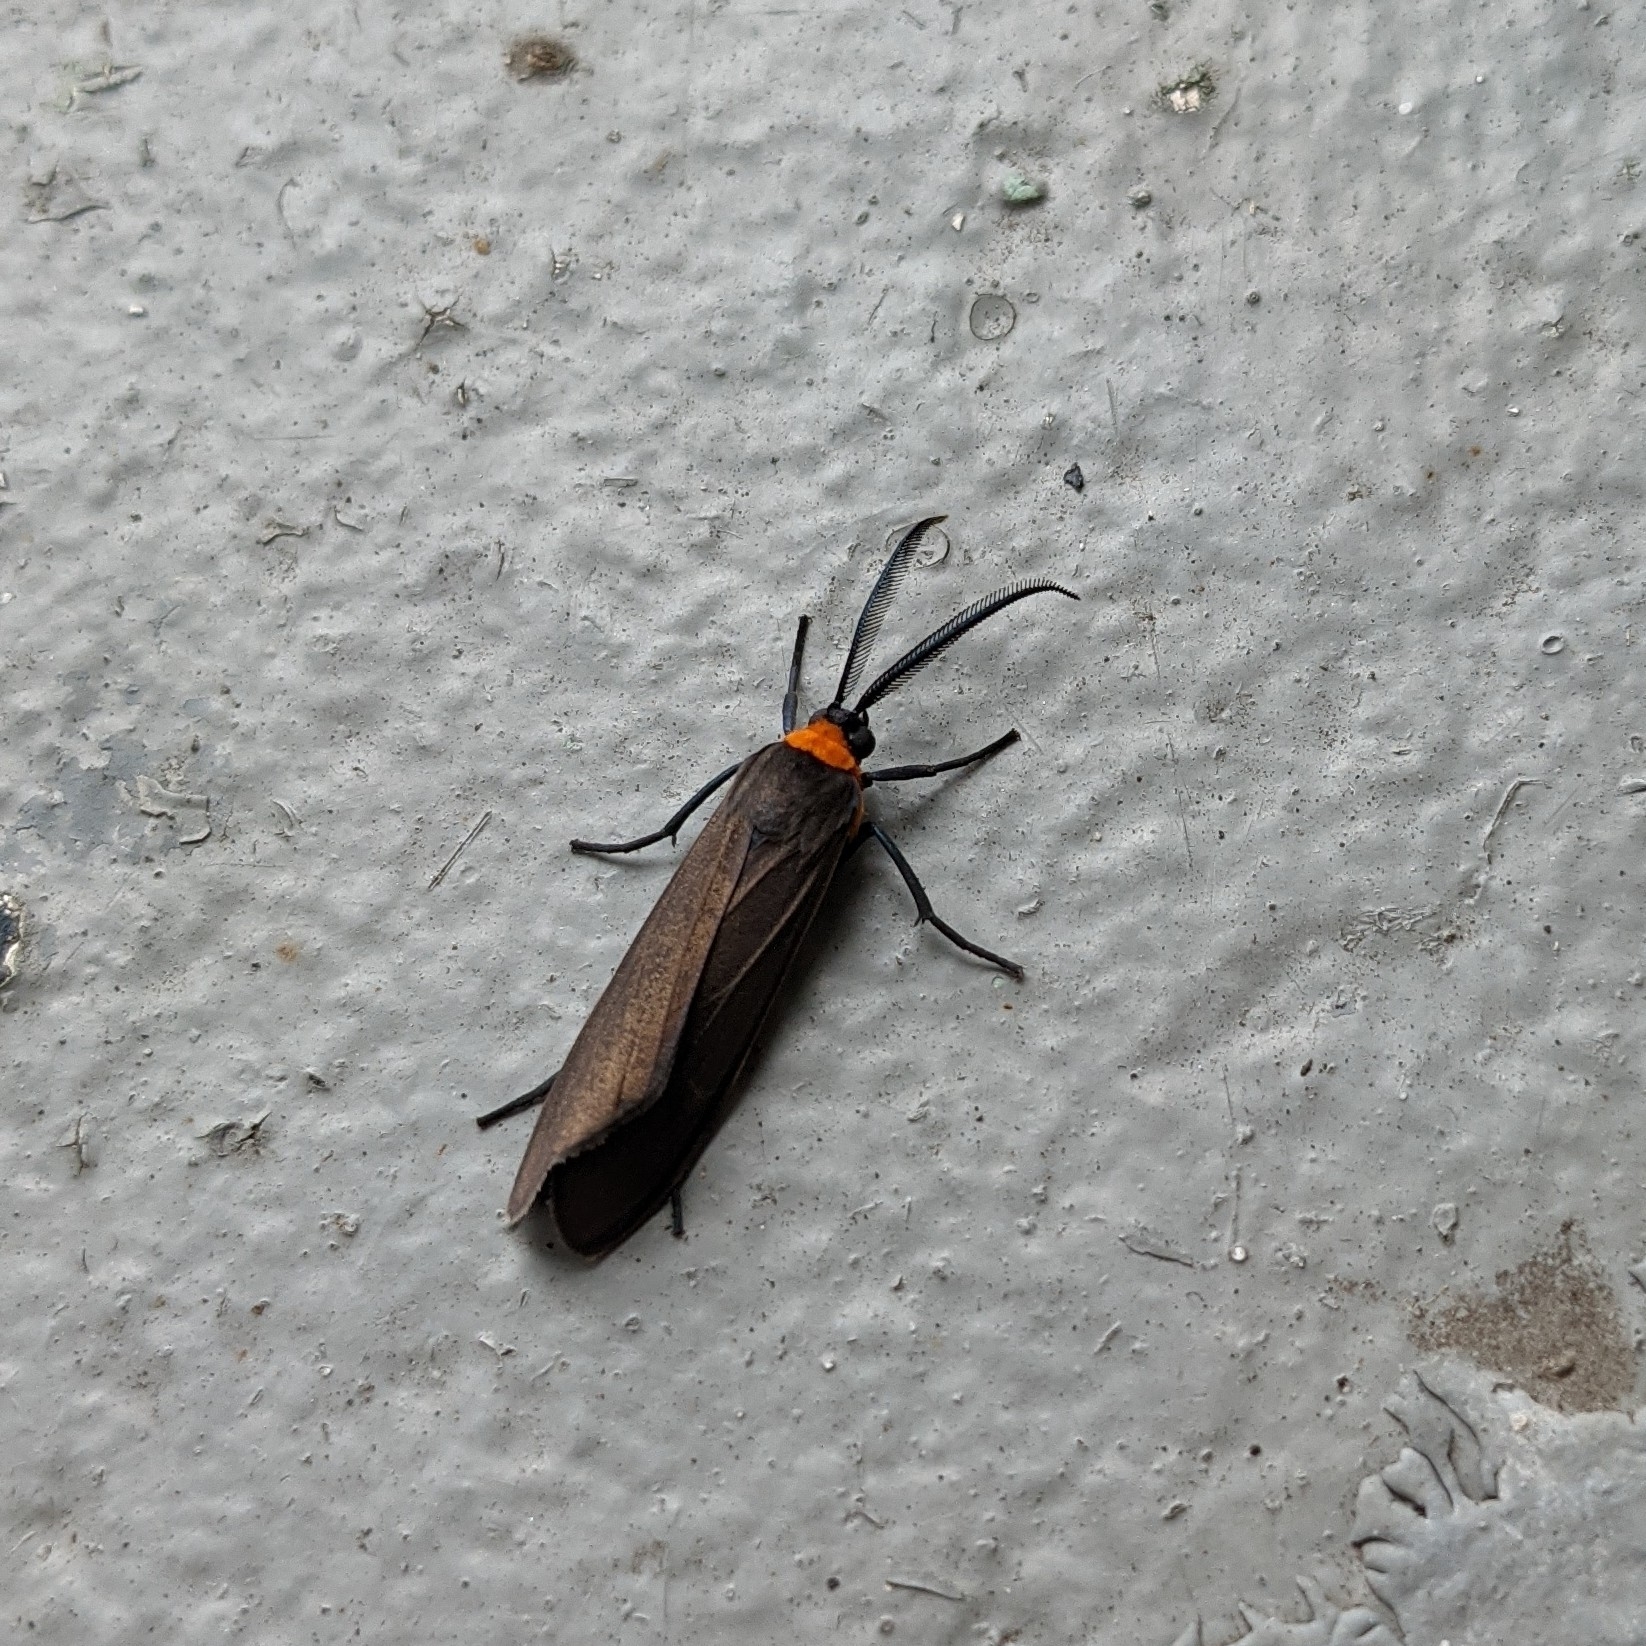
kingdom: Animalia
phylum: Arthropoda
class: Insecta
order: Lepidoptera
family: Erebidae
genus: Cisseps
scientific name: Cisseps fulvicollis
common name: Yellow-collared scape moth
